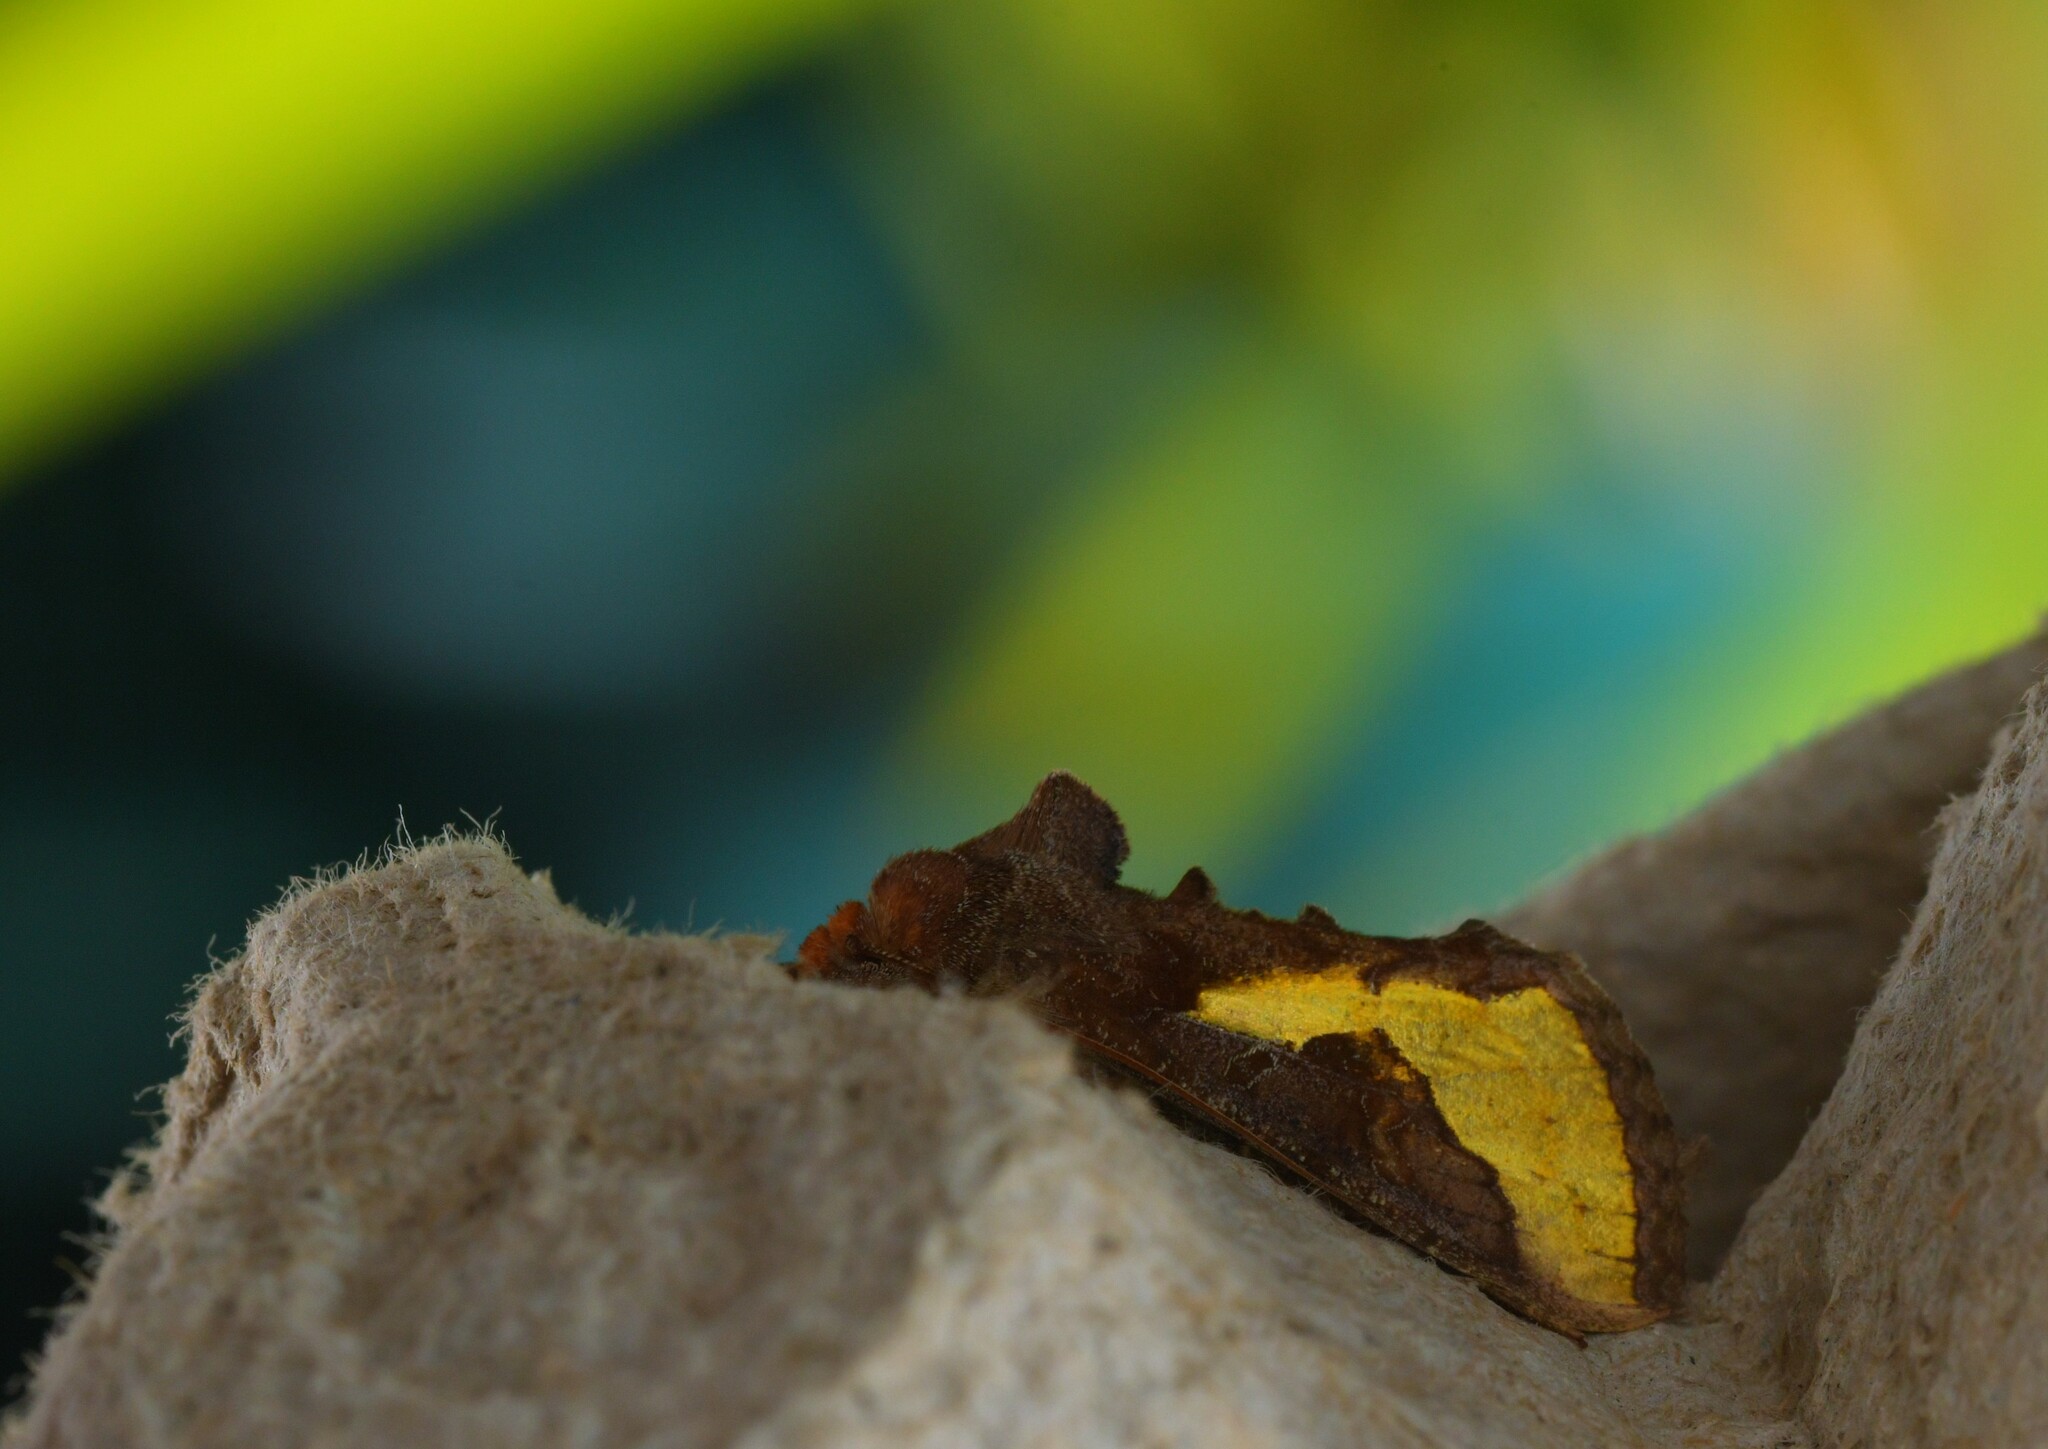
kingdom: Animalia
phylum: Arthropoda
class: Insecta
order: Lepidoptera
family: Noctuidae
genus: Thysanoplusia
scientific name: Thysanoplusia orichalcea
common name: Slender burnished brass, golden plusia
